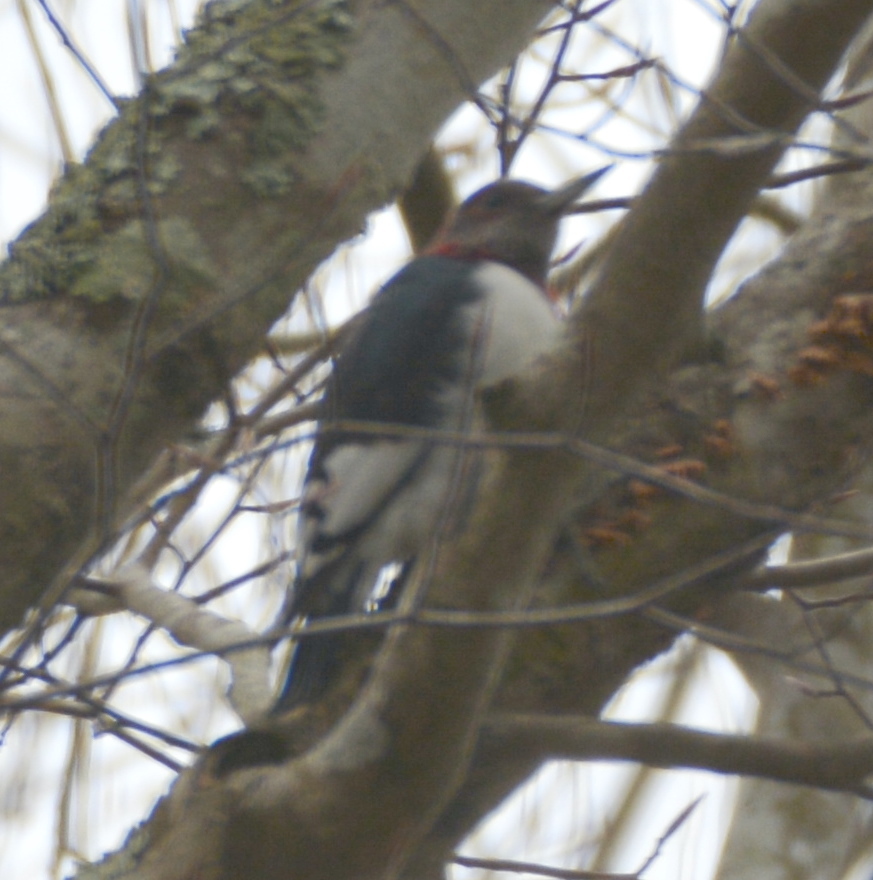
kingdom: Animalia
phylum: Chordata
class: Aves
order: Piciformes
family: Picidae
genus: Melanerpes
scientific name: Melanerpes erythrocephalus
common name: Red-headed woodpecker
